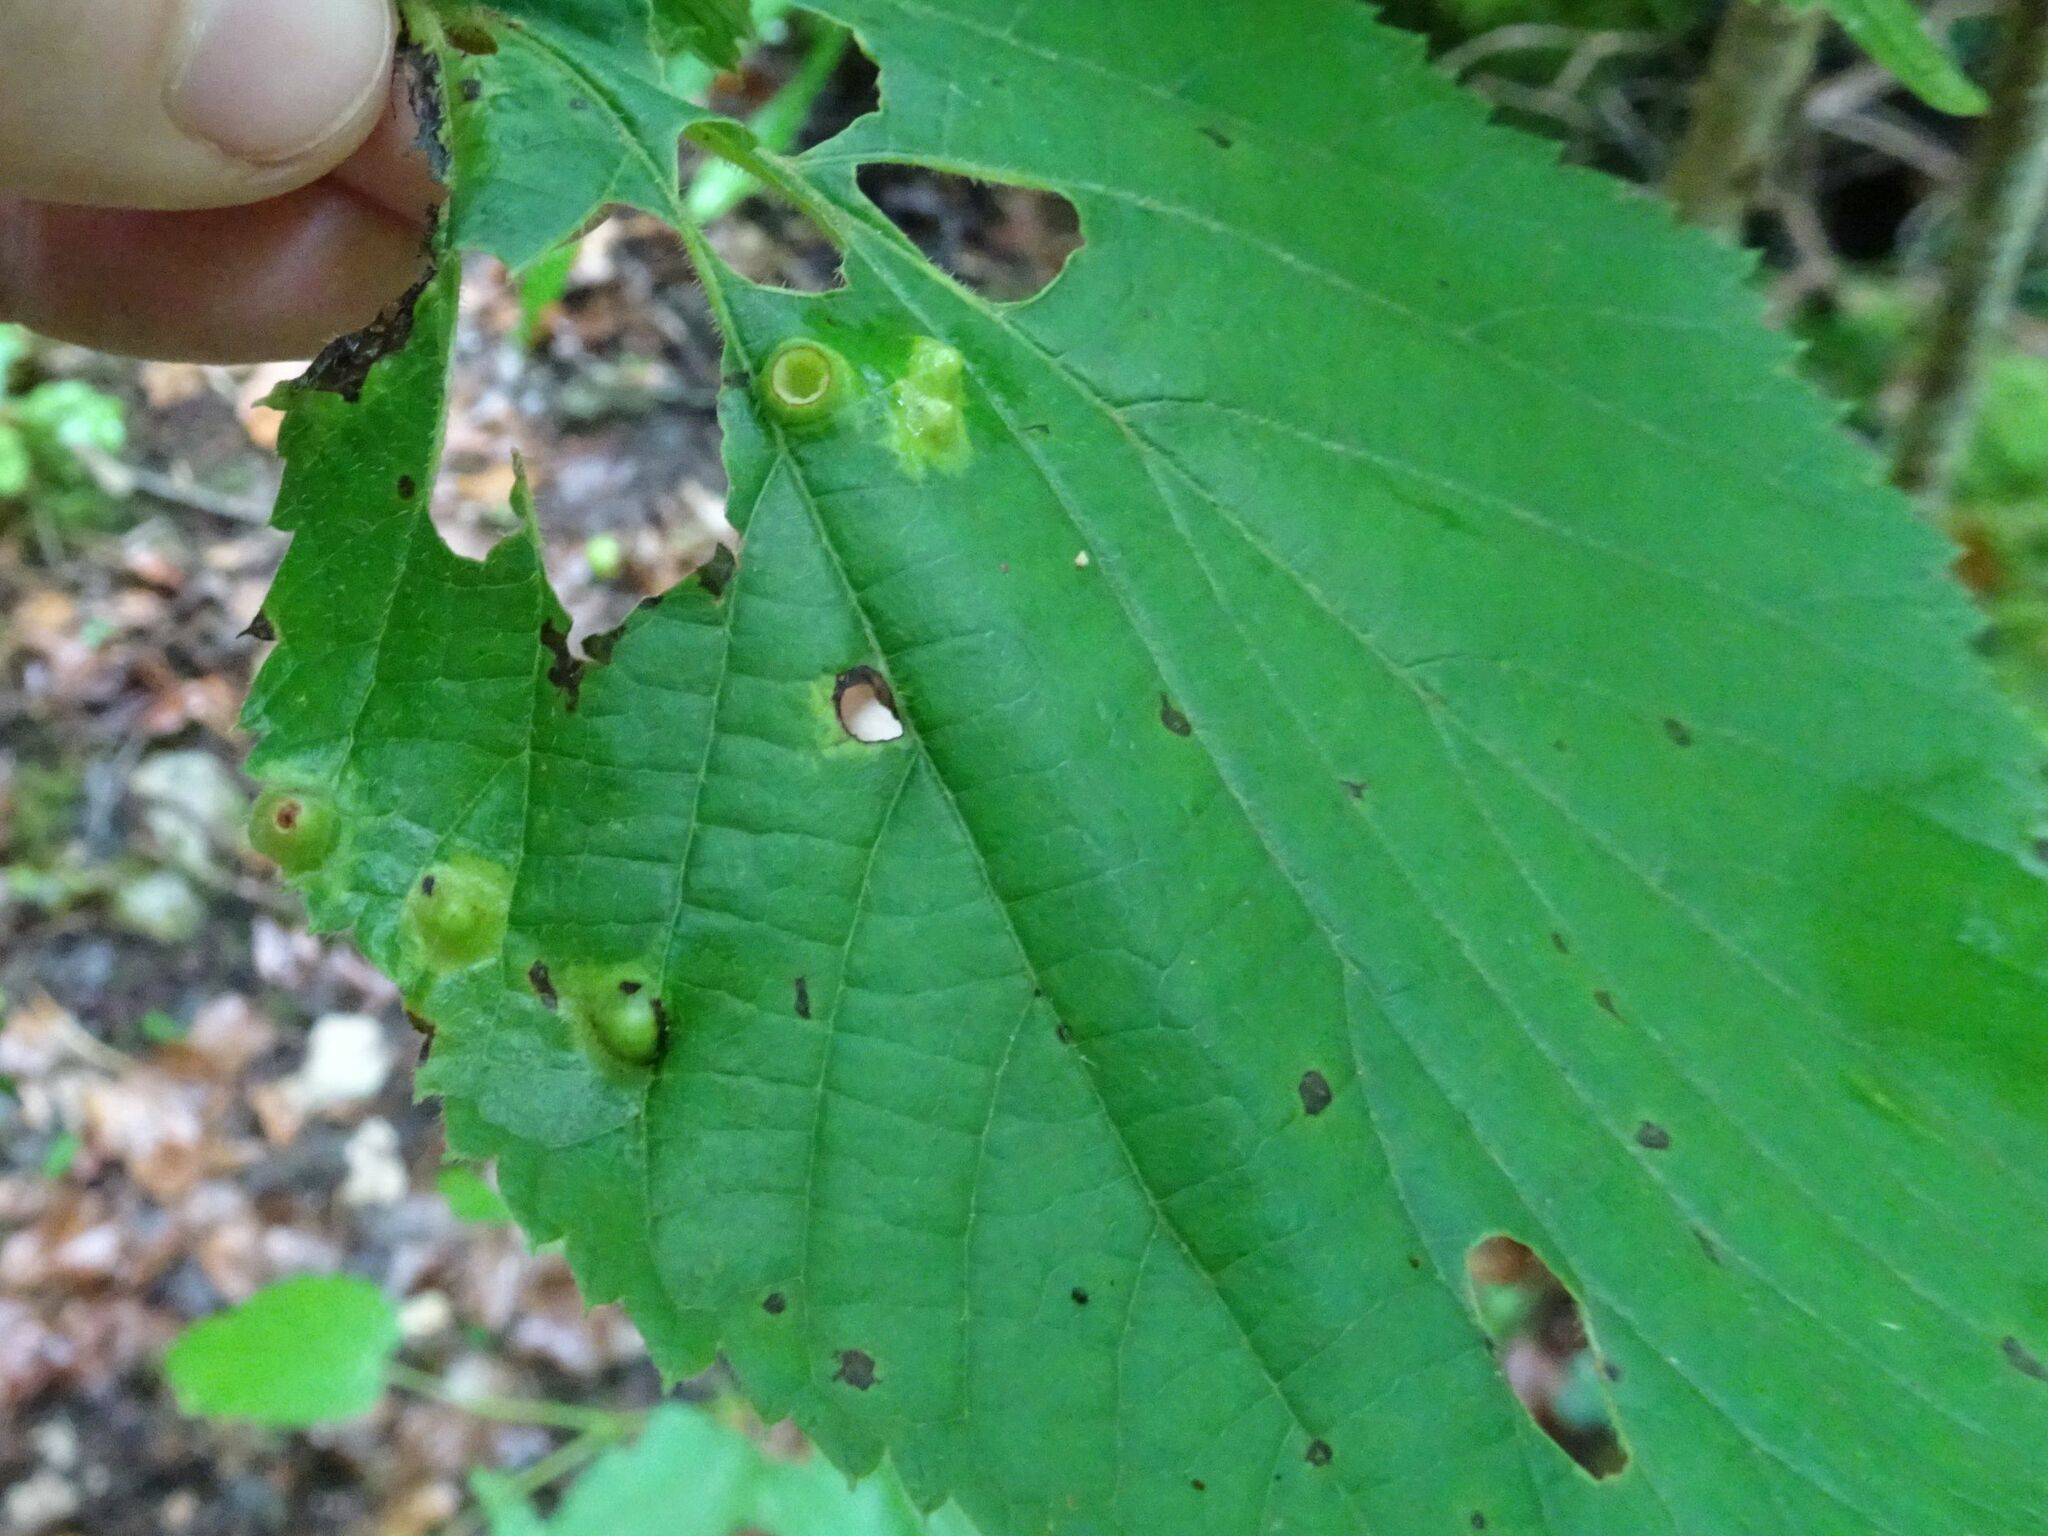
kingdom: Animalia
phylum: Arthropoda
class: Insecta
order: Diptera
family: Cecidomyiidae
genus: Didymomyia
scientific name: Didymomyia tiliacea
